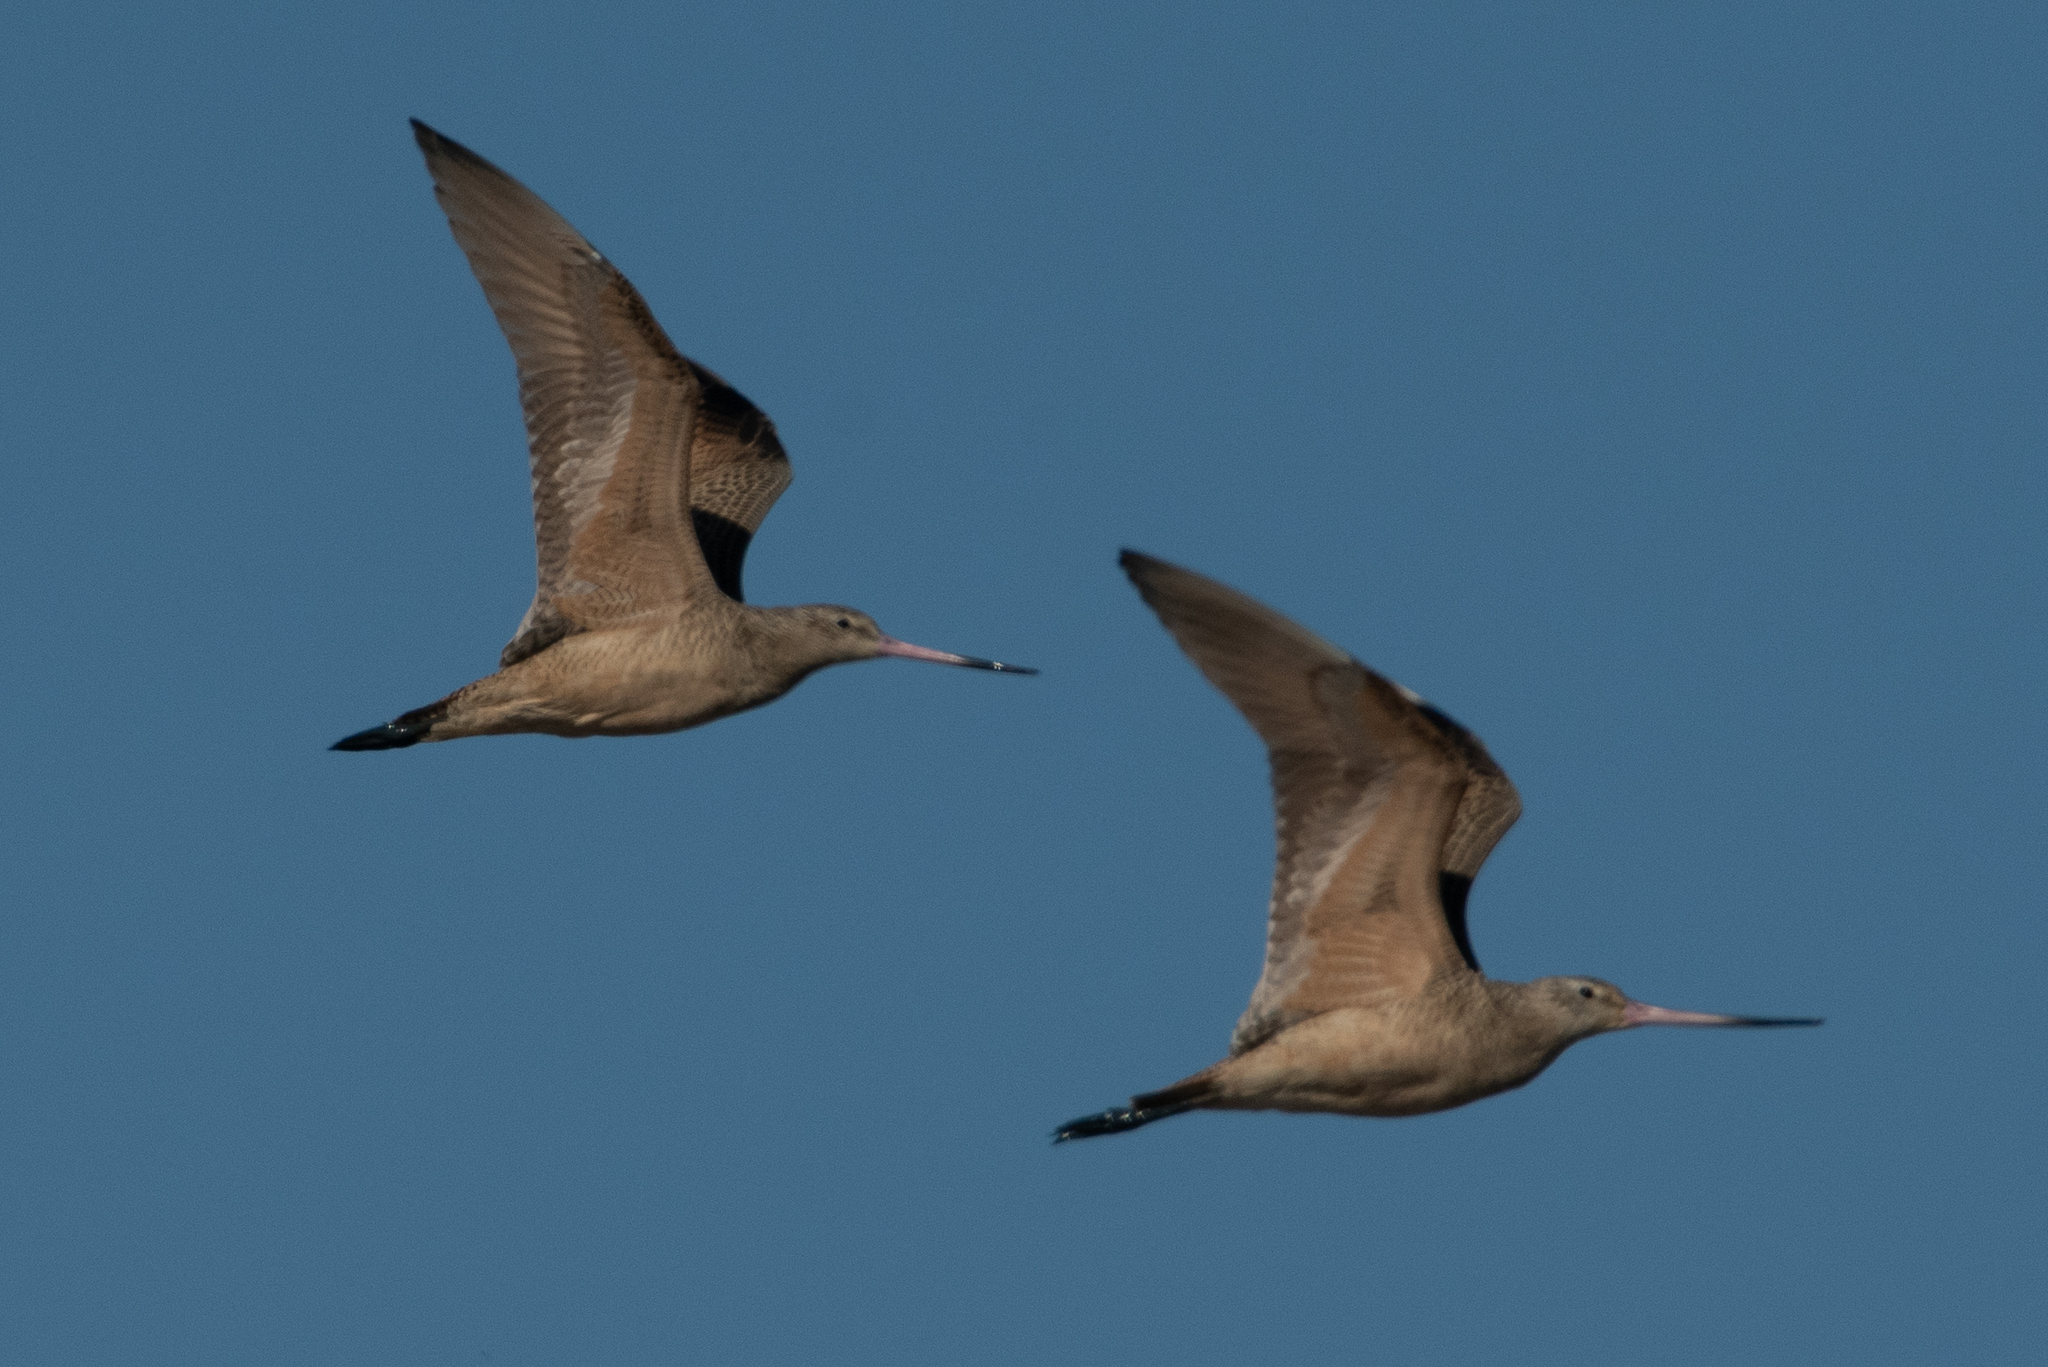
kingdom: Animalia
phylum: Chordata
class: Aves
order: Charadriiformes
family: Scolopacidae
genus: Limosa
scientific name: Limosa fedoa
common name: Marbled godwit
